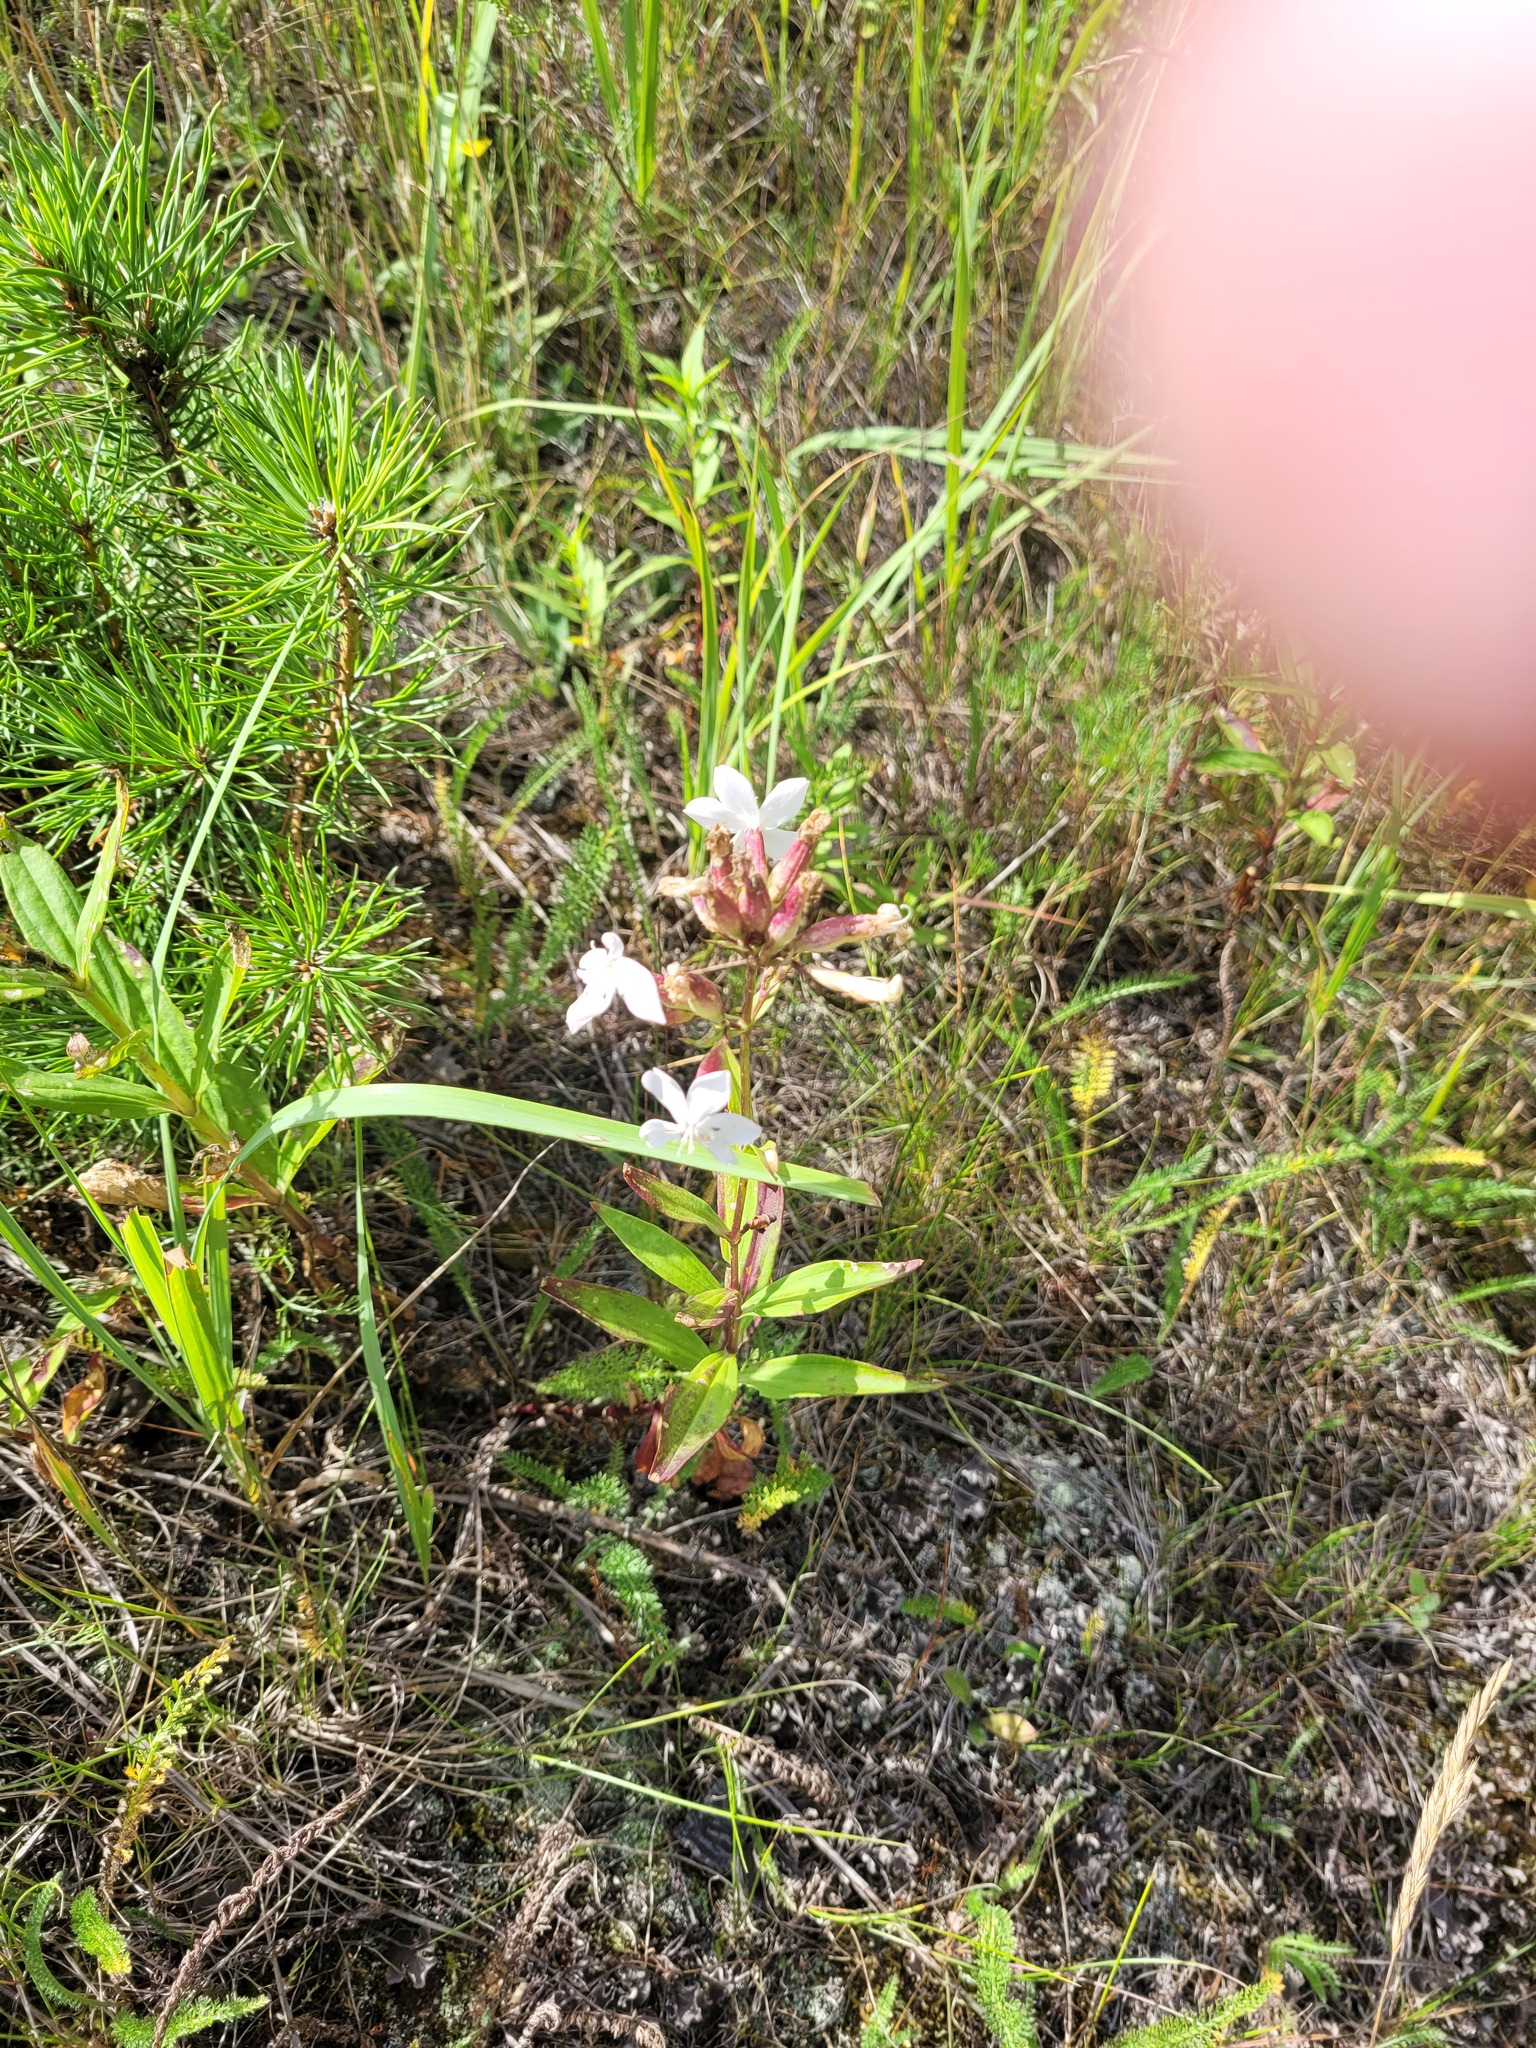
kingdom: Plantae
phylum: Tracheophyta
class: Magnoliopsida
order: Caryophyllales
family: Caryophyllaceae
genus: Saponaria
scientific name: Saponaria officinalis
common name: Soapwort
